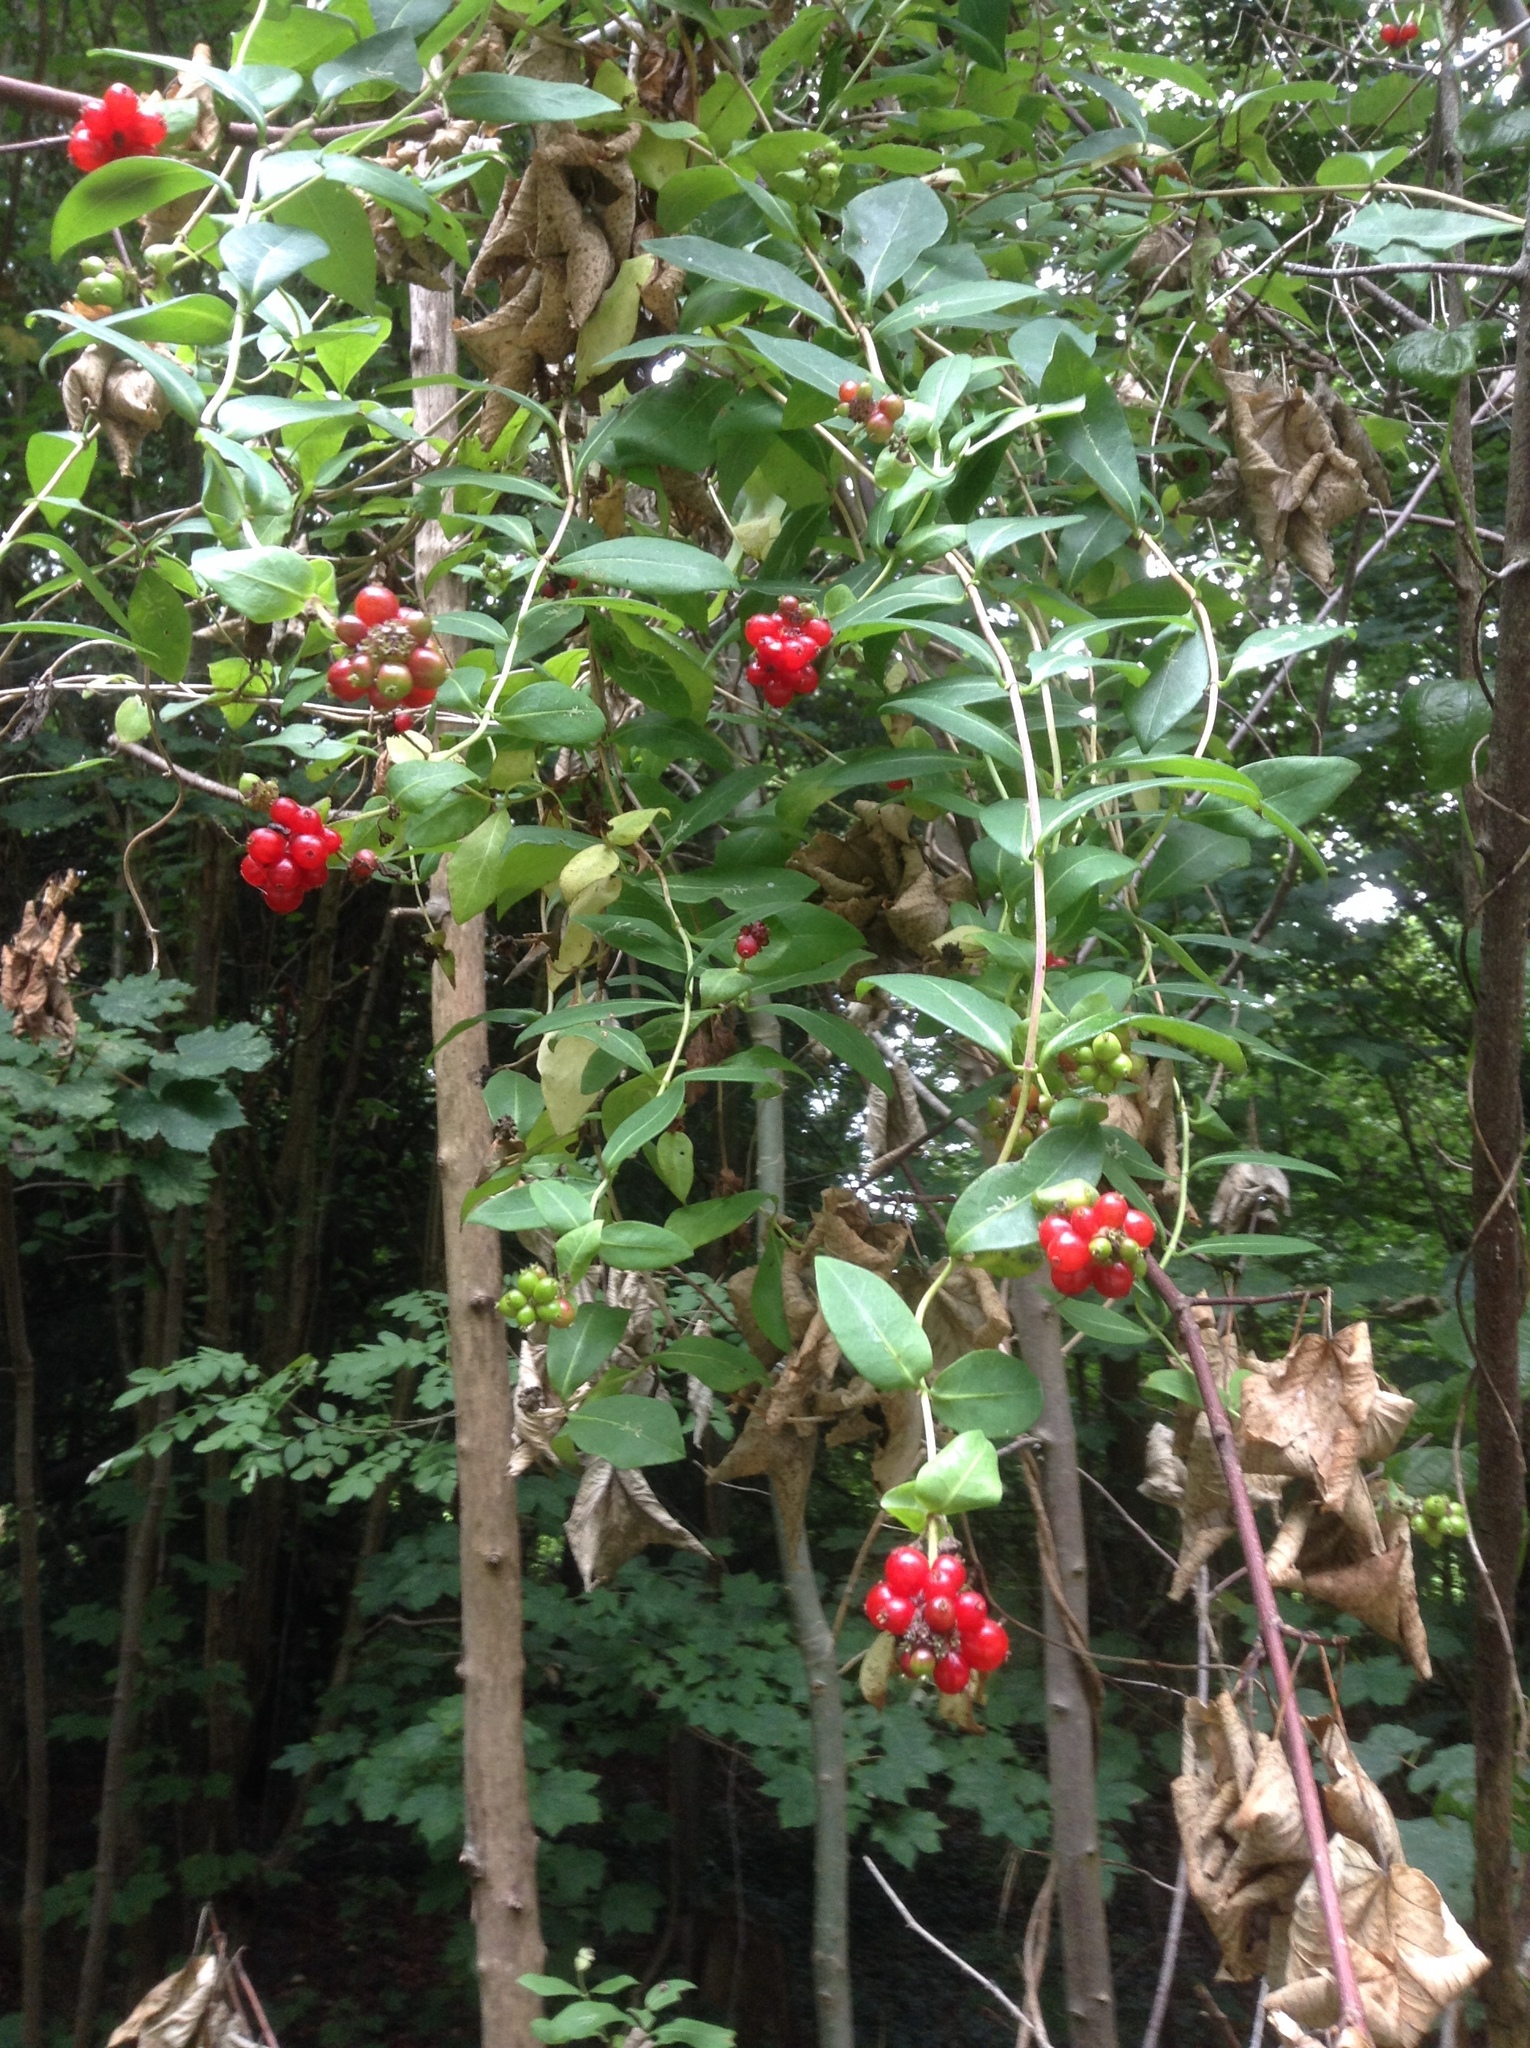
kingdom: Plantae
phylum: Tracheophyta
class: Magnoliopsida
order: Dipsacales
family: Caprifoliaceae
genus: Lonicera
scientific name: Lonicera periclymenum
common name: European honeysuckle
